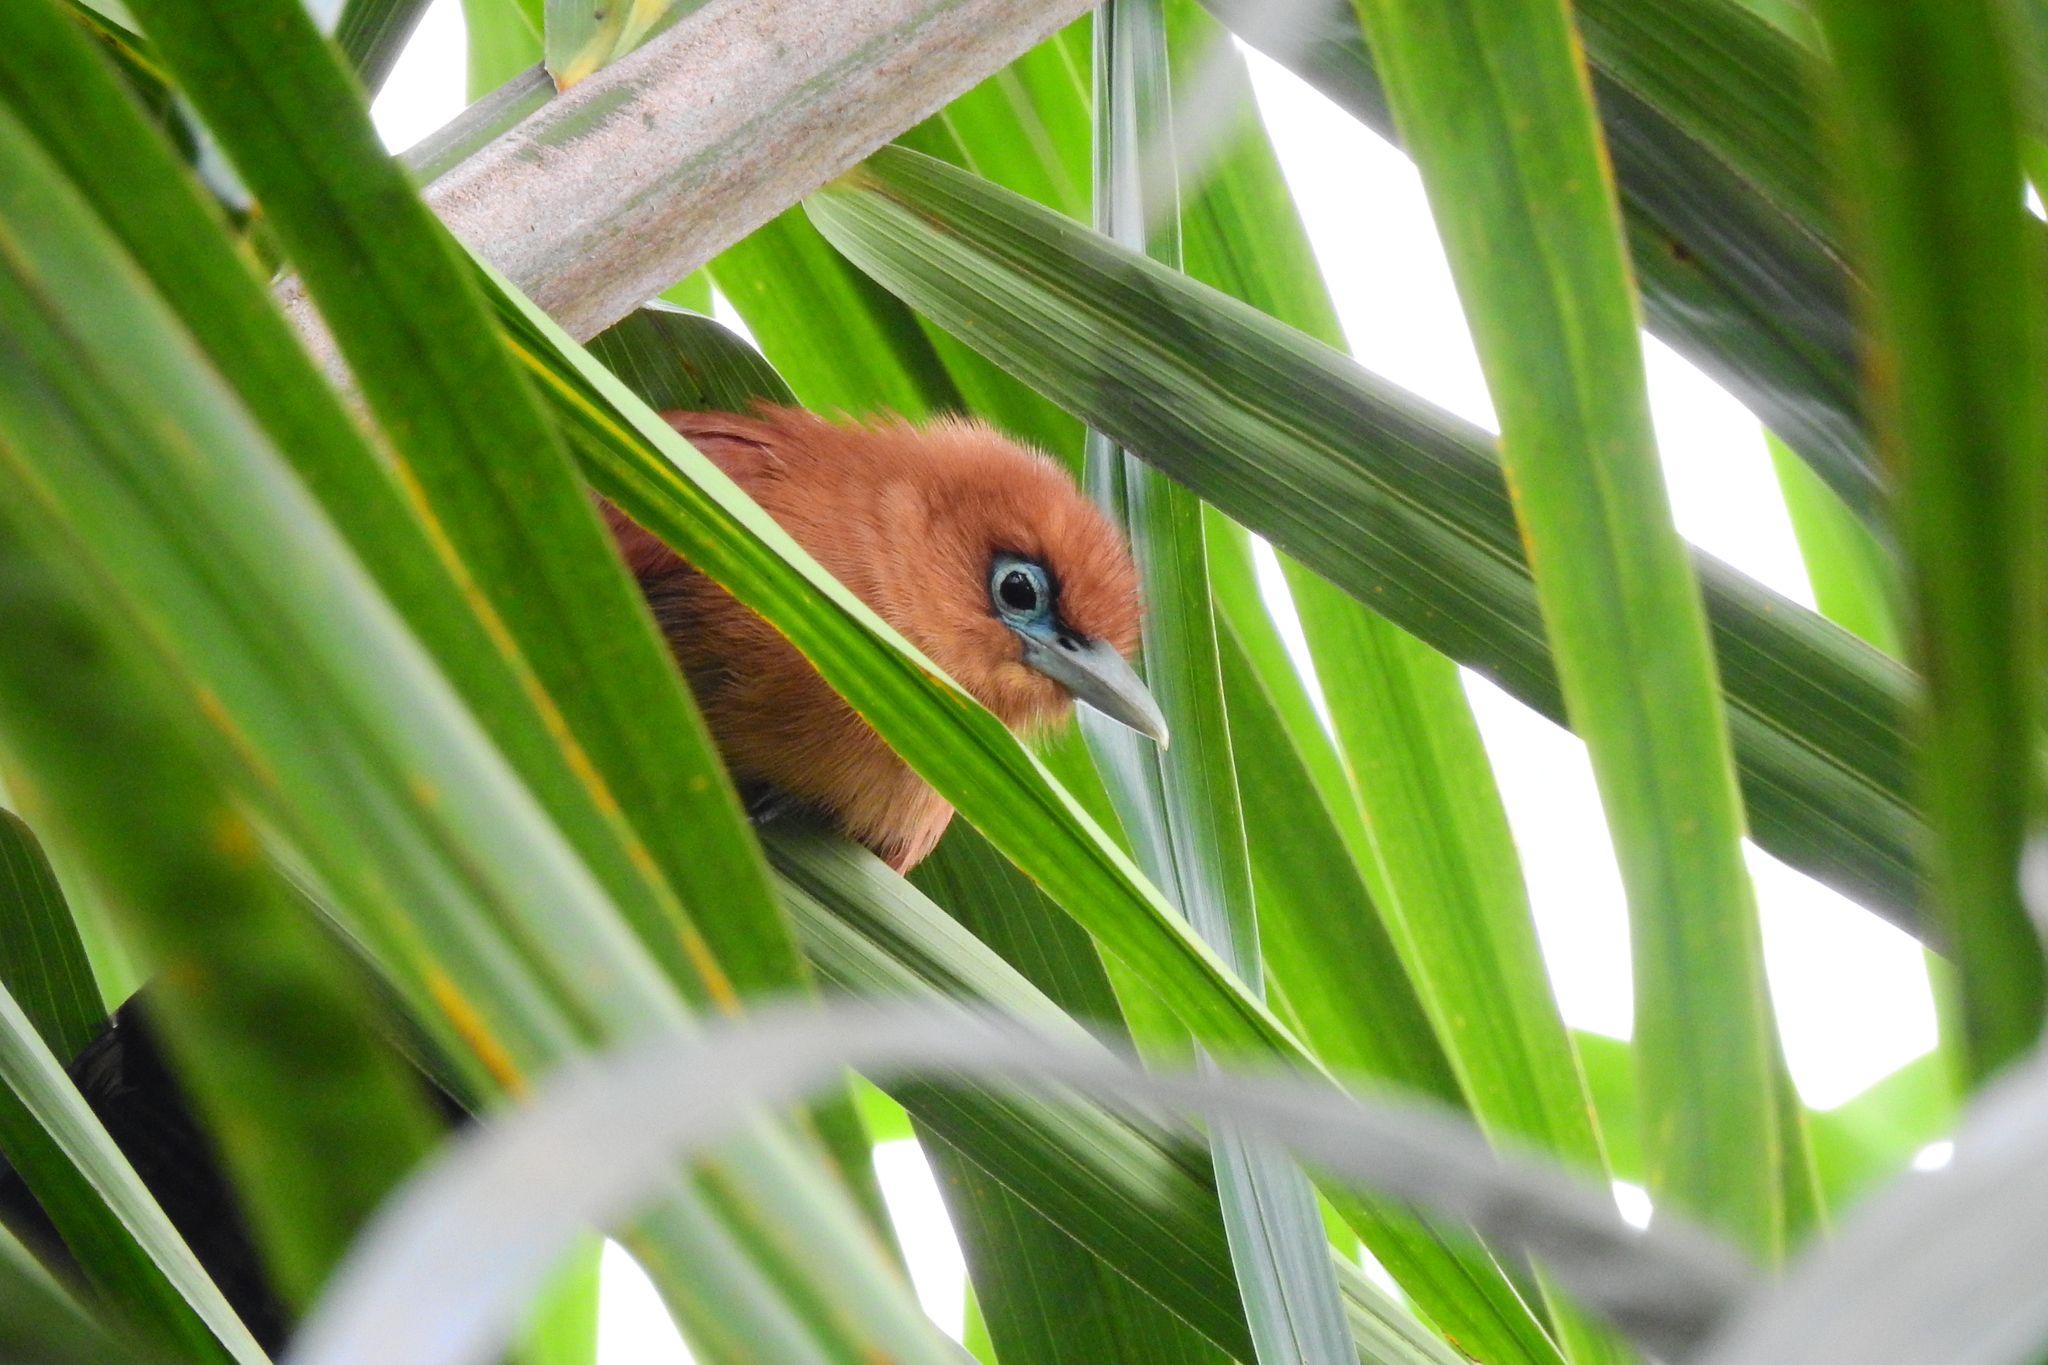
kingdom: Animalia
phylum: Chordata
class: Aves
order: Cuculiformes
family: Cuculidae
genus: Rhinortha
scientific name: Rhinortha chlorophaea
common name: Raffles's malkoha
